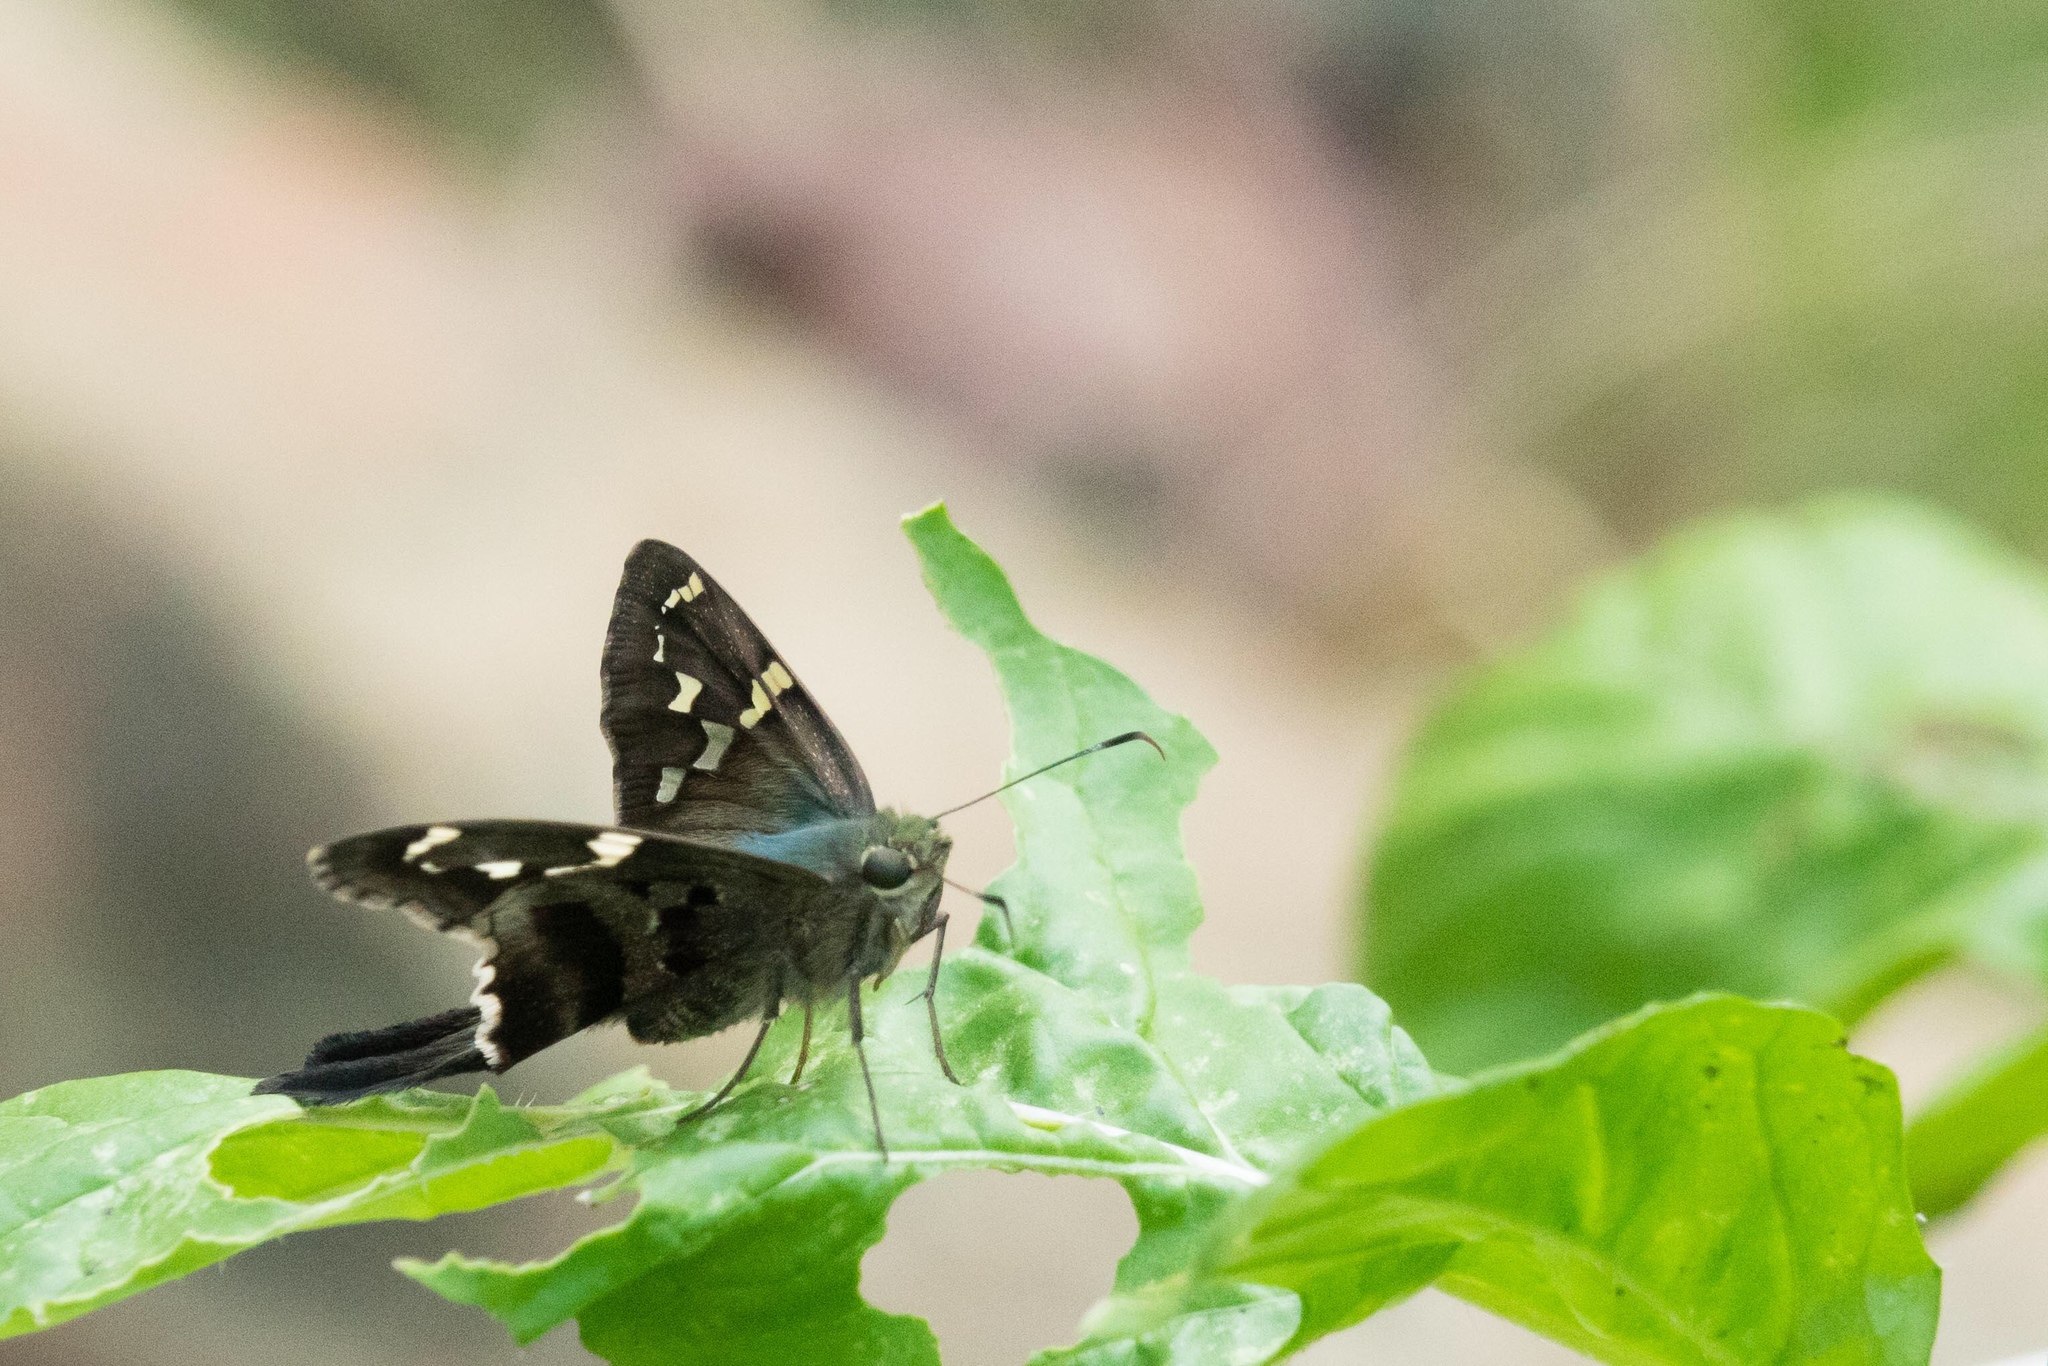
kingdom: Animalia
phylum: Arthropoda
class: Insecta
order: Lepidoptera
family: Hesperiidae
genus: Urbanus
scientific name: Urbanus proteus
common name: Long-tailed skipper
